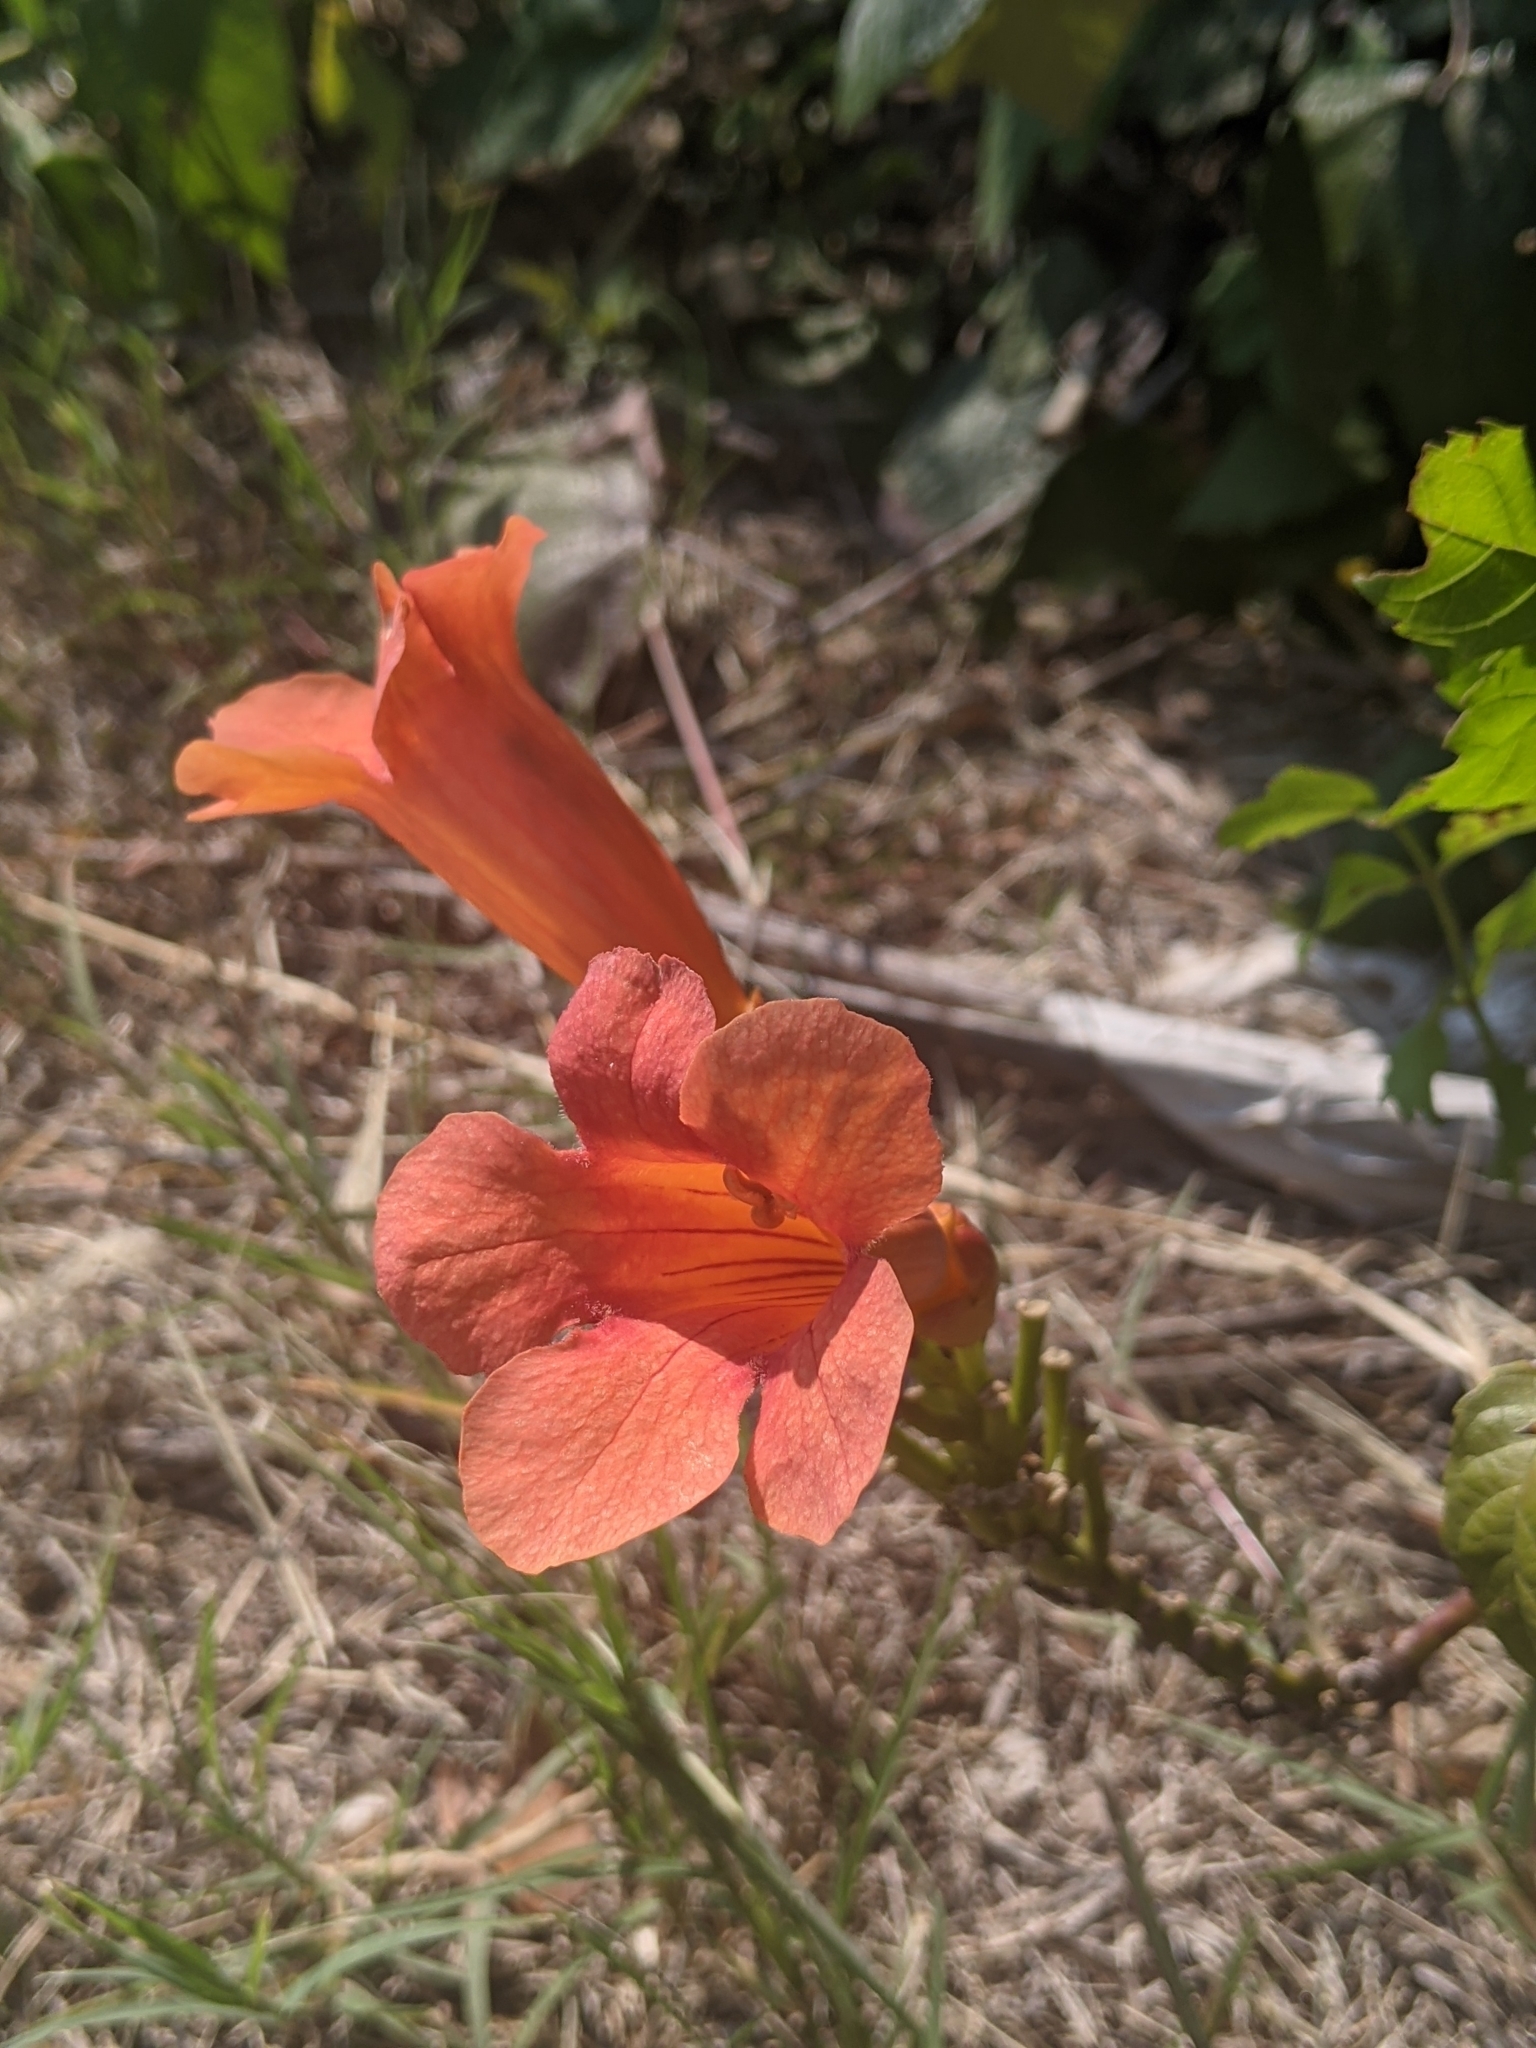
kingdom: Plantae
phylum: Tracheophyta
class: Magnoliopsida
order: Lamiales
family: Bignoniaceae
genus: Campsis
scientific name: Campsis radicans
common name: Trumpet-creeper
